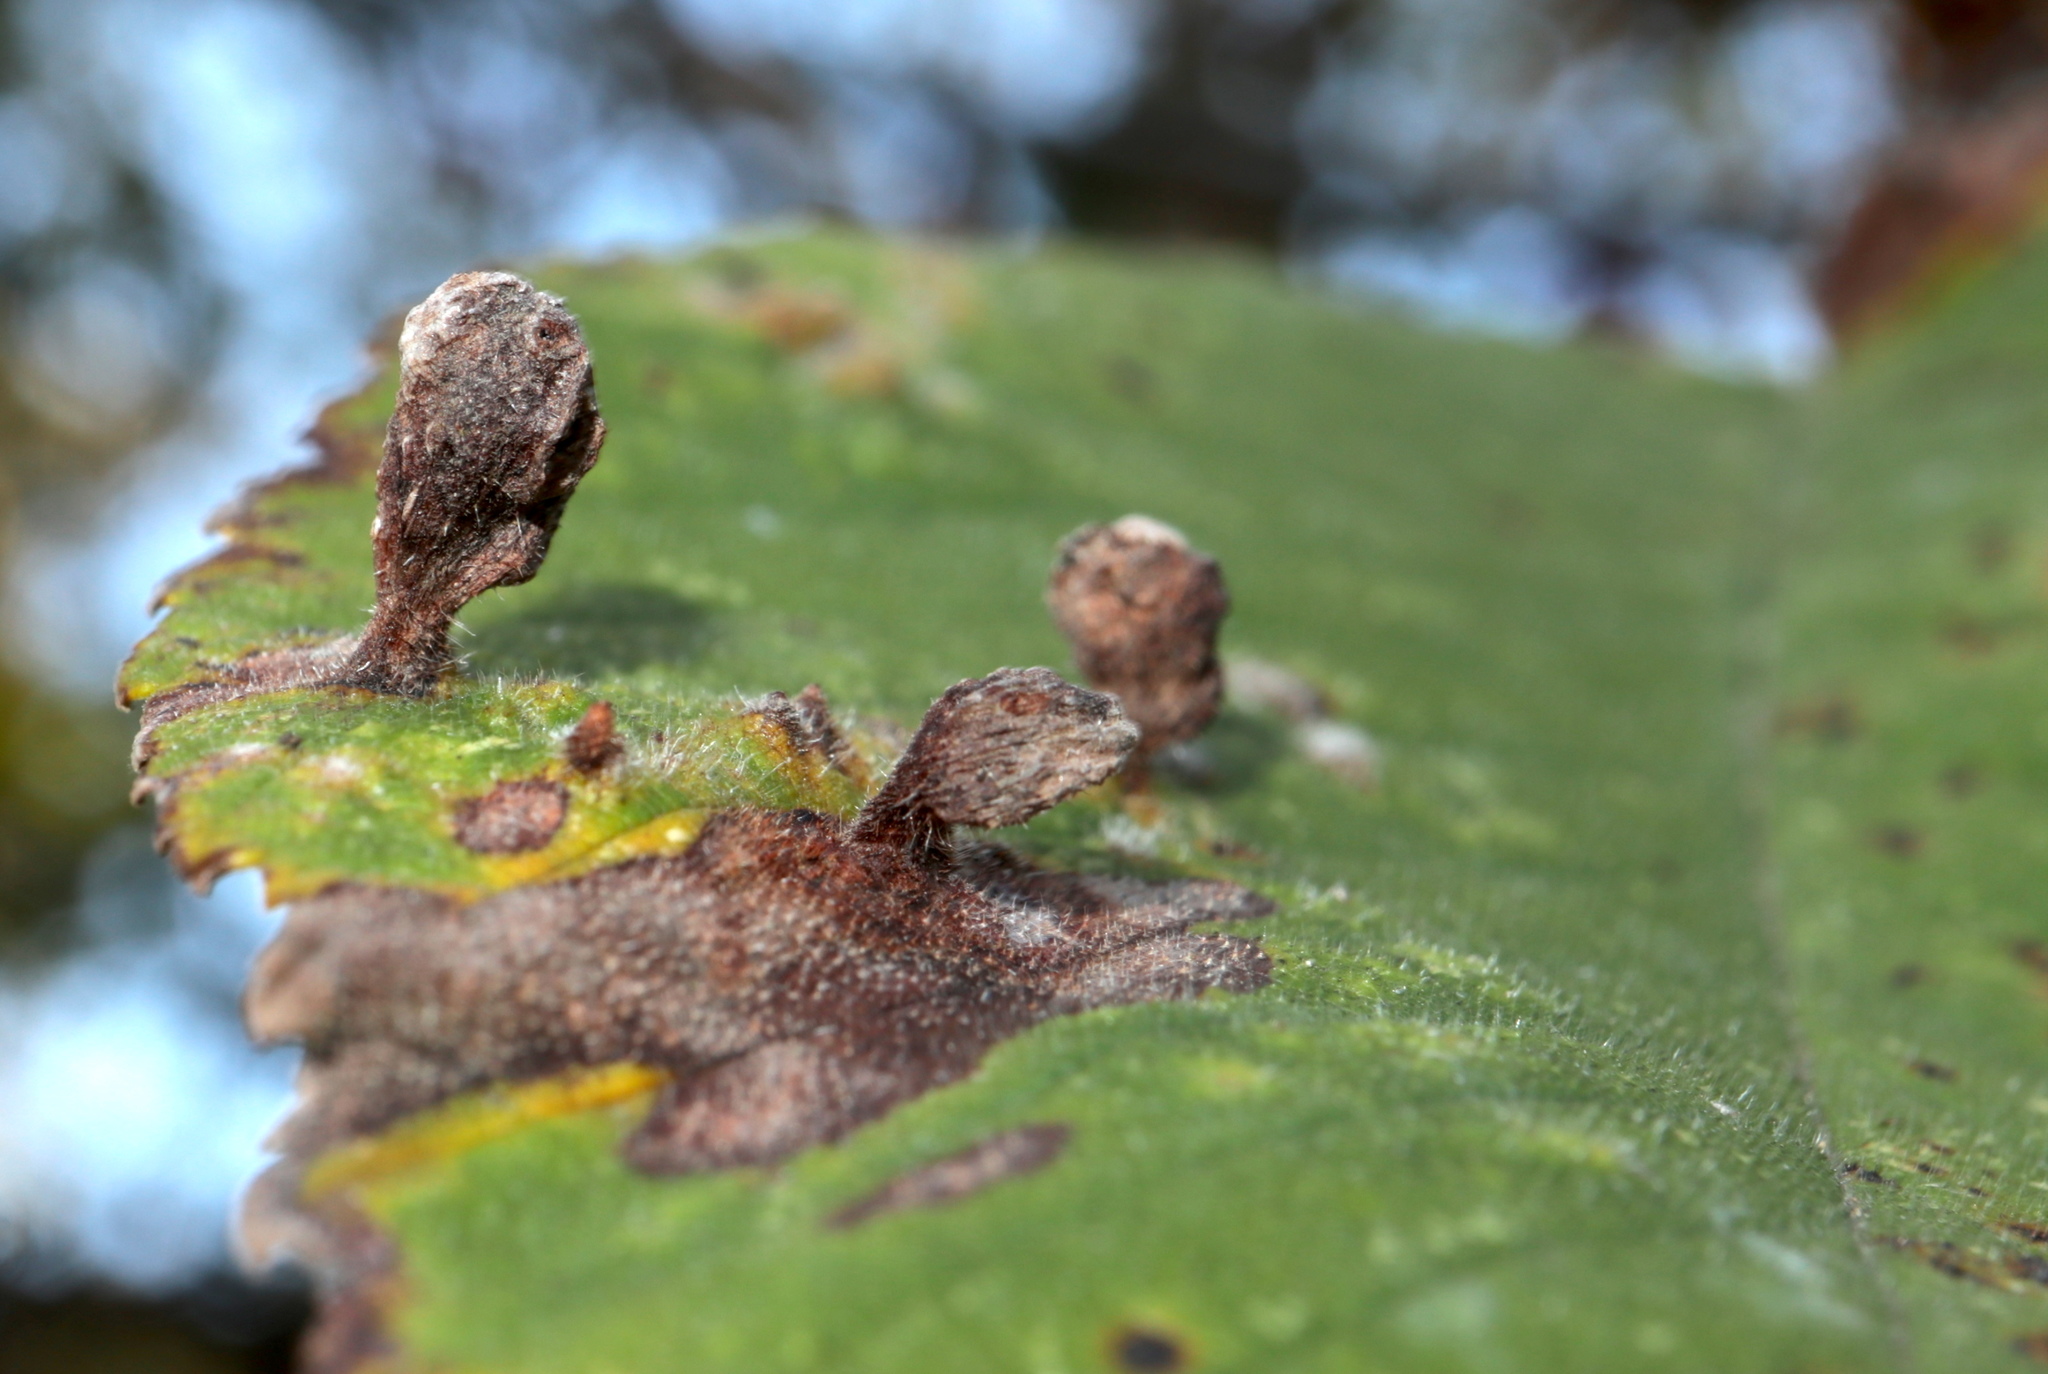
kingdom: Animalia
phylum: Arthropoda
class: Insecta
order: Hemiptera
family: Aphididae
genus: Tetraneura
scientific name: Tetraneura nigriabdominalis
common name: Aphid
